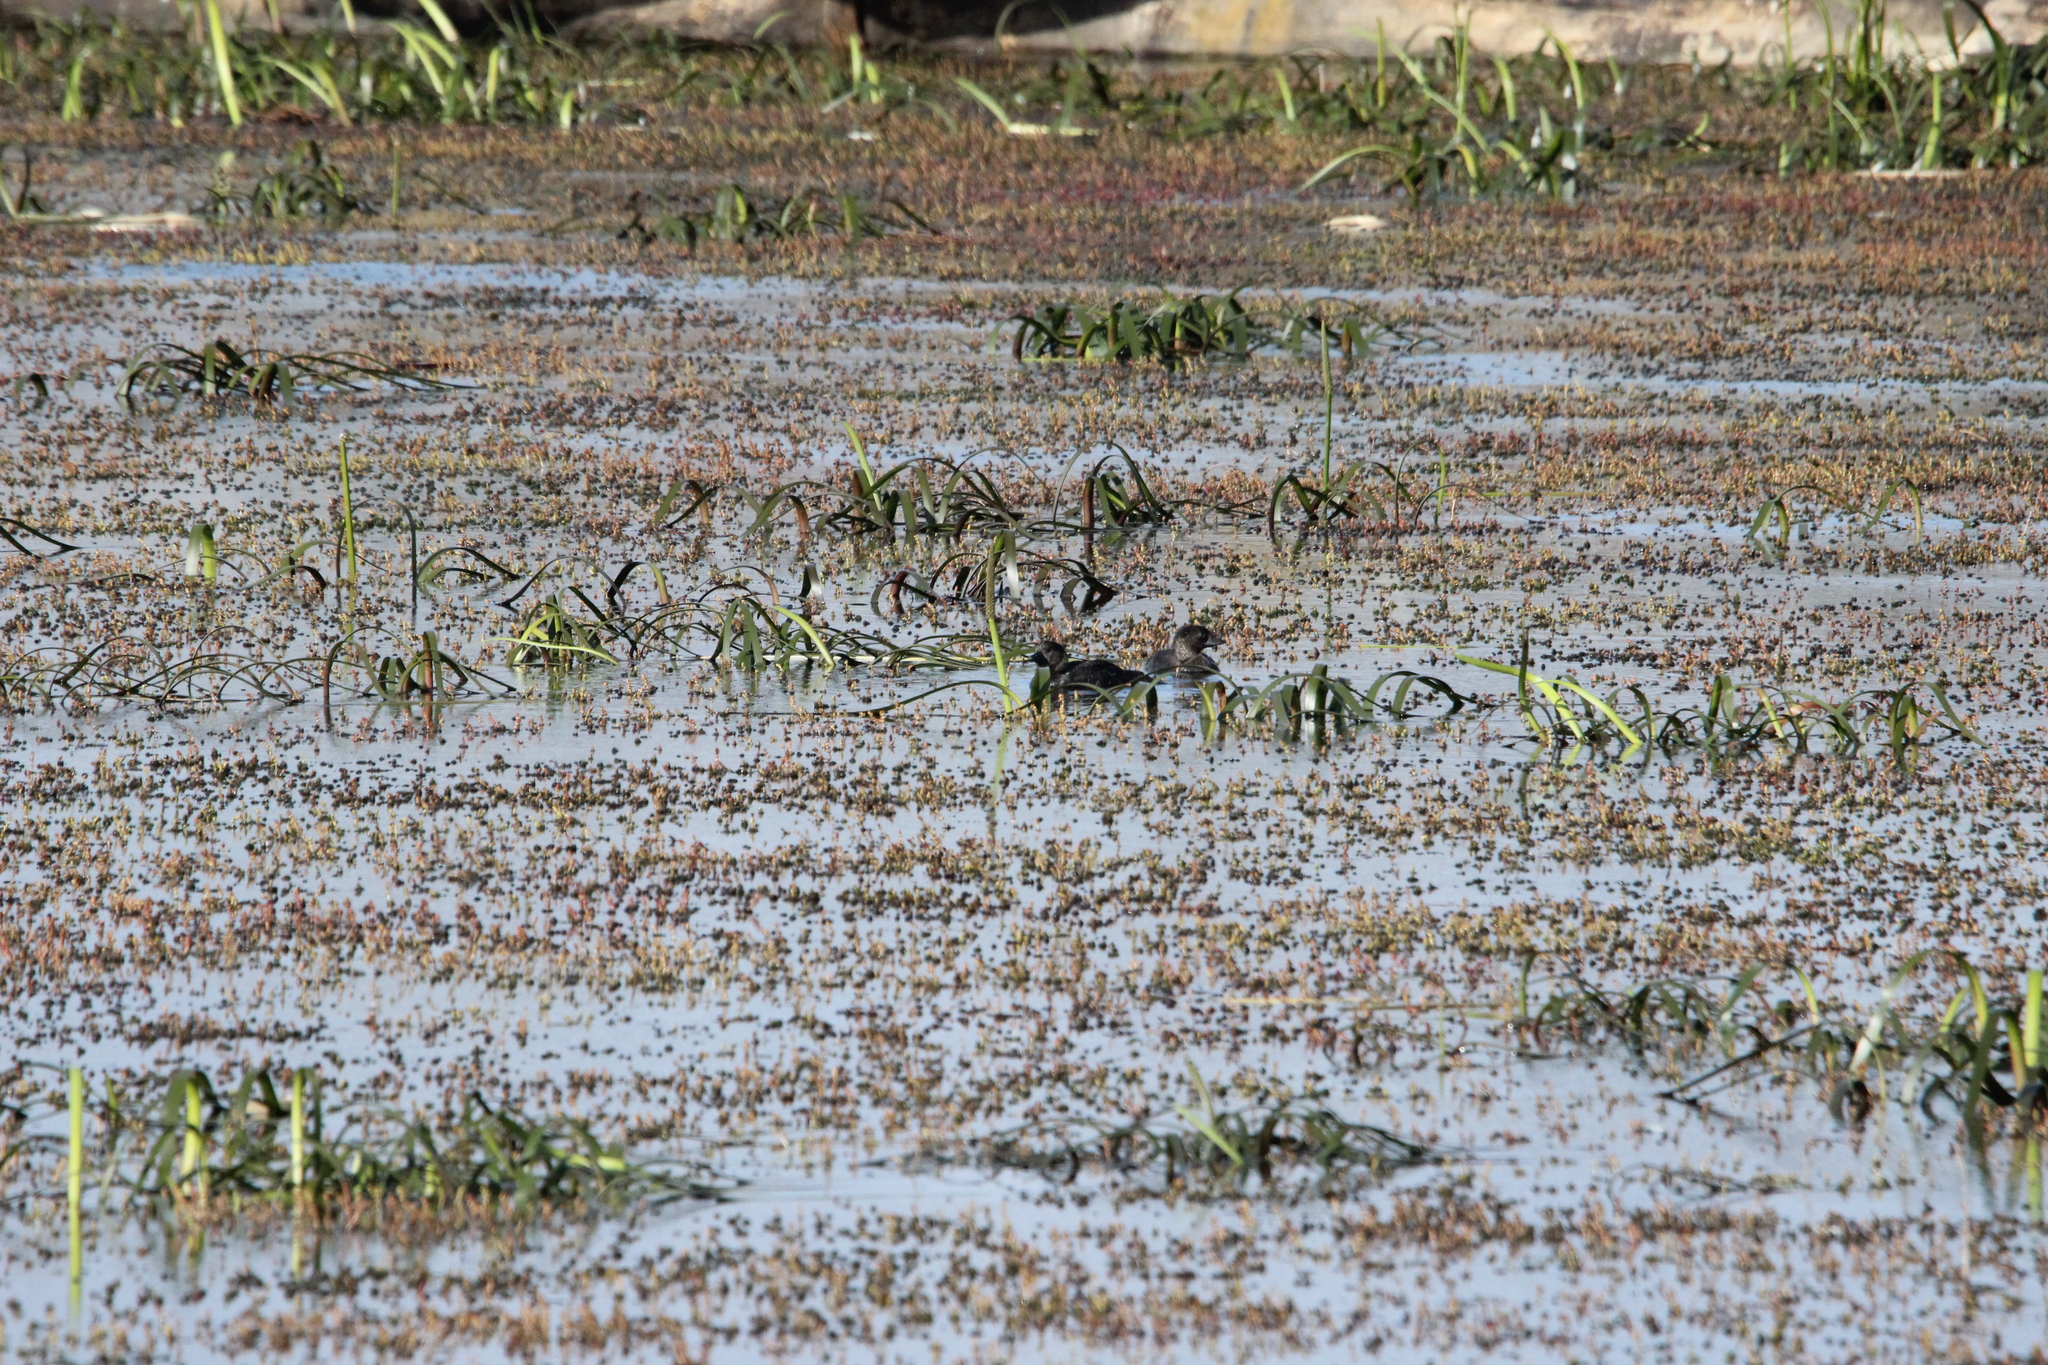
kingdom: Animalia
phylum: Chordata
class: Aves
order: Anseriformes
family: Anatidae
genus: Biziura
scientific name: Biziura lobata
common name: Musk duck
